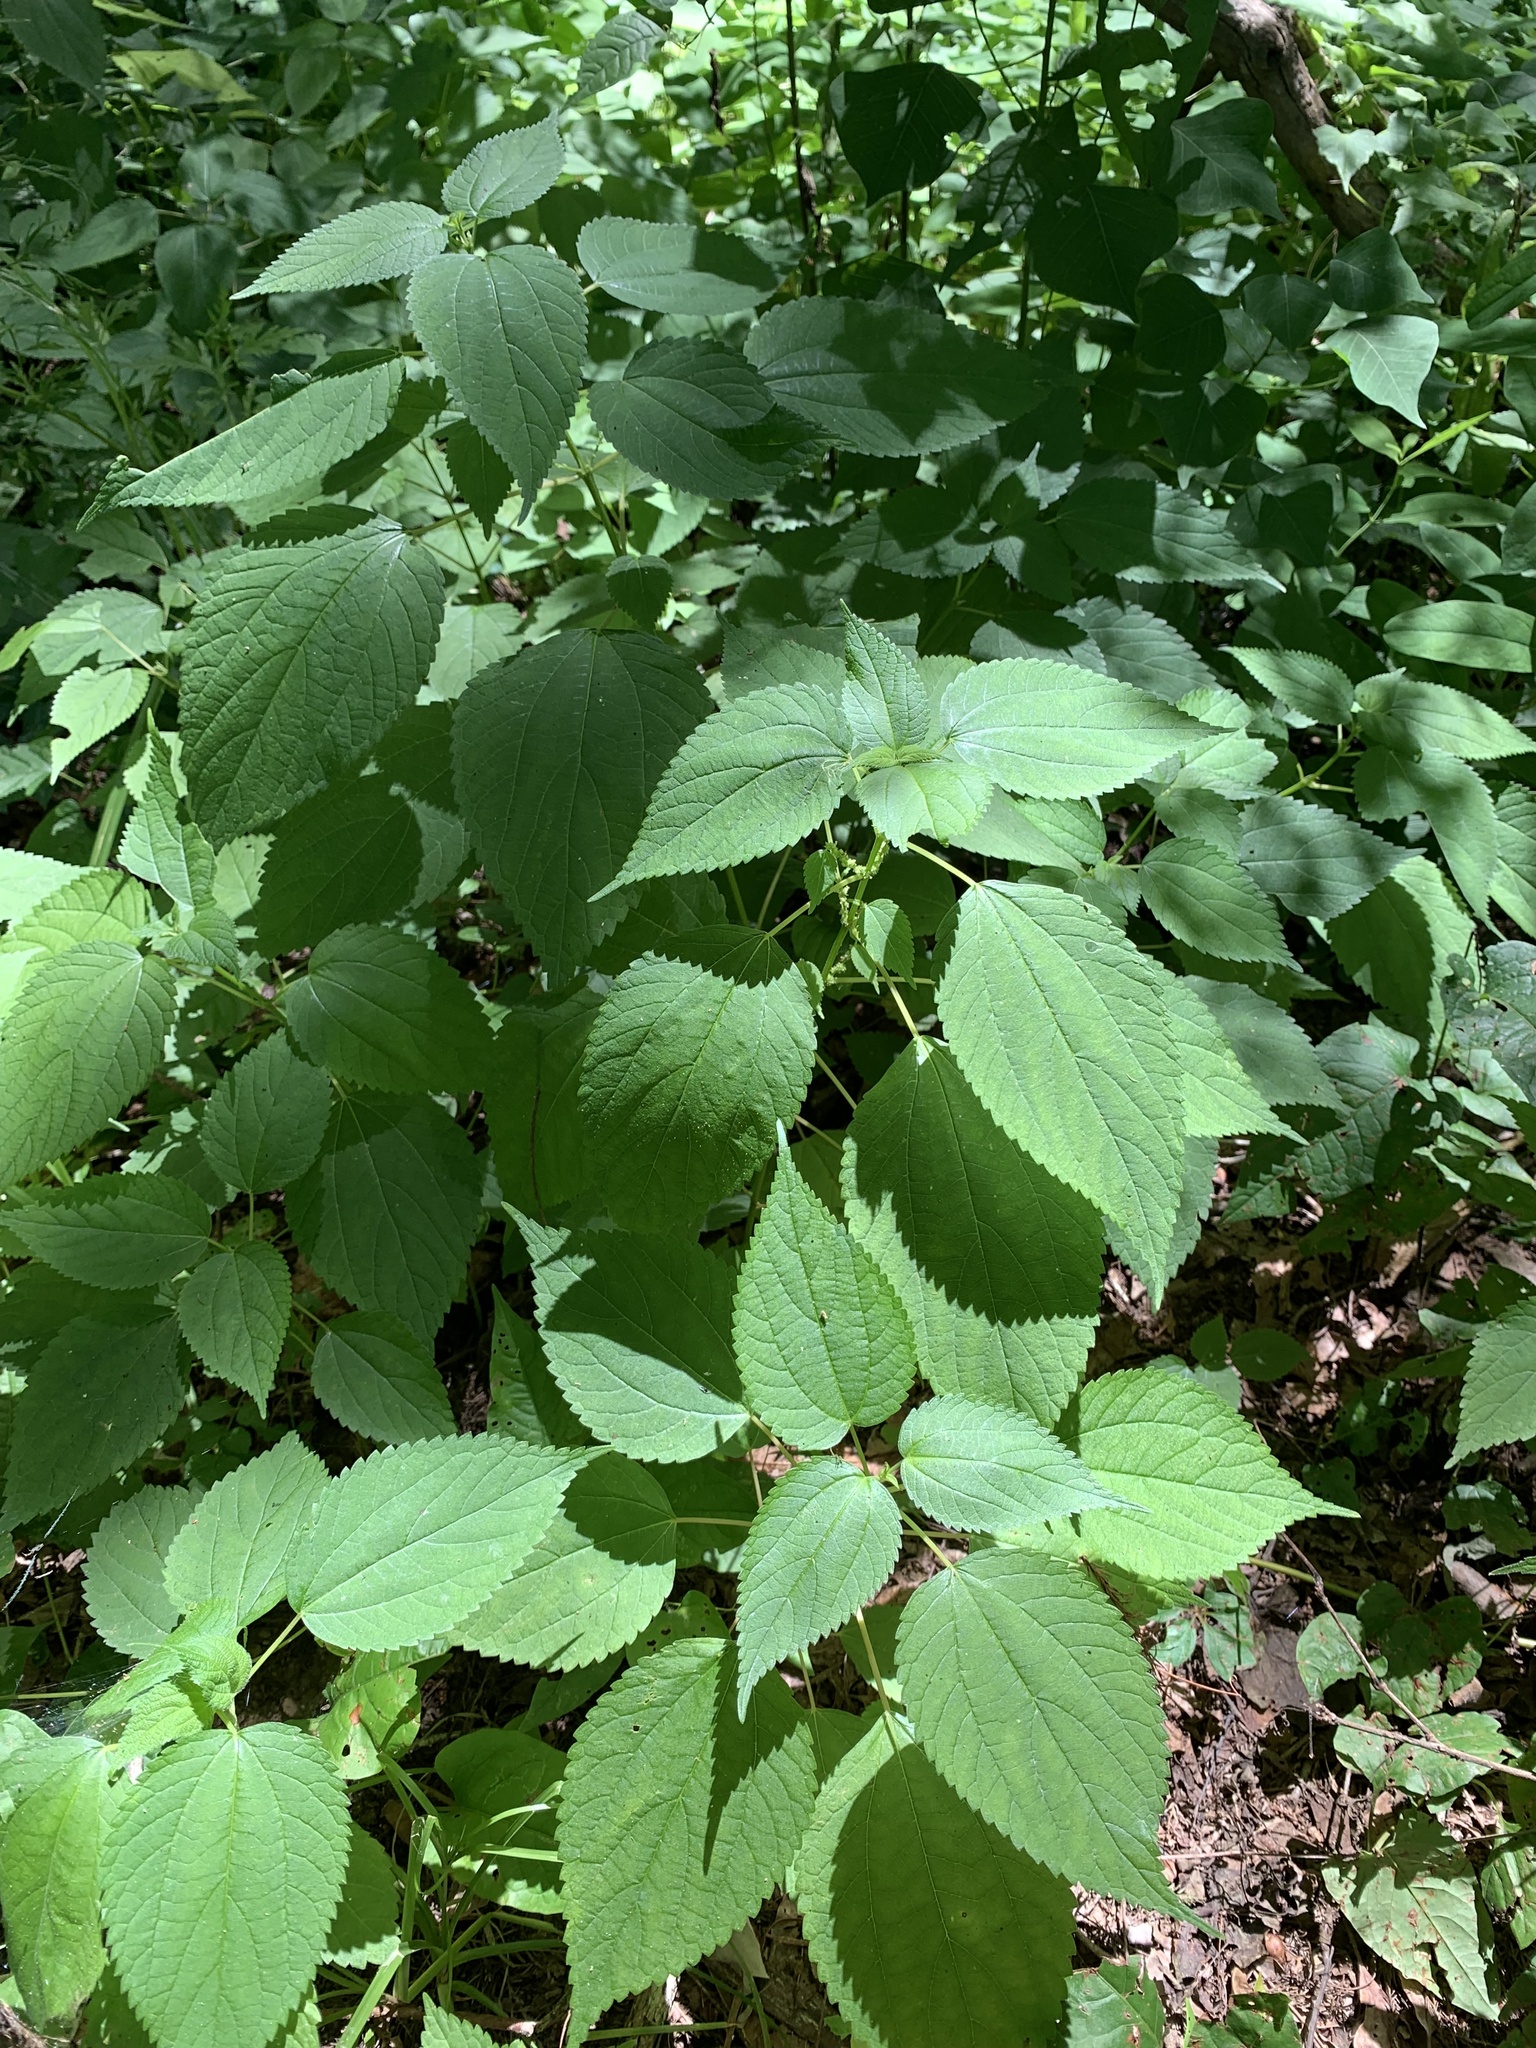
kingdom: Plantae
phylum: Tracheophyta
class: Magnoliopsida
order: Rosales
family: Urticaceae
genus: Boehmeria
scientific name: Boehmeria cylindrica
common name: Bog-hemp
